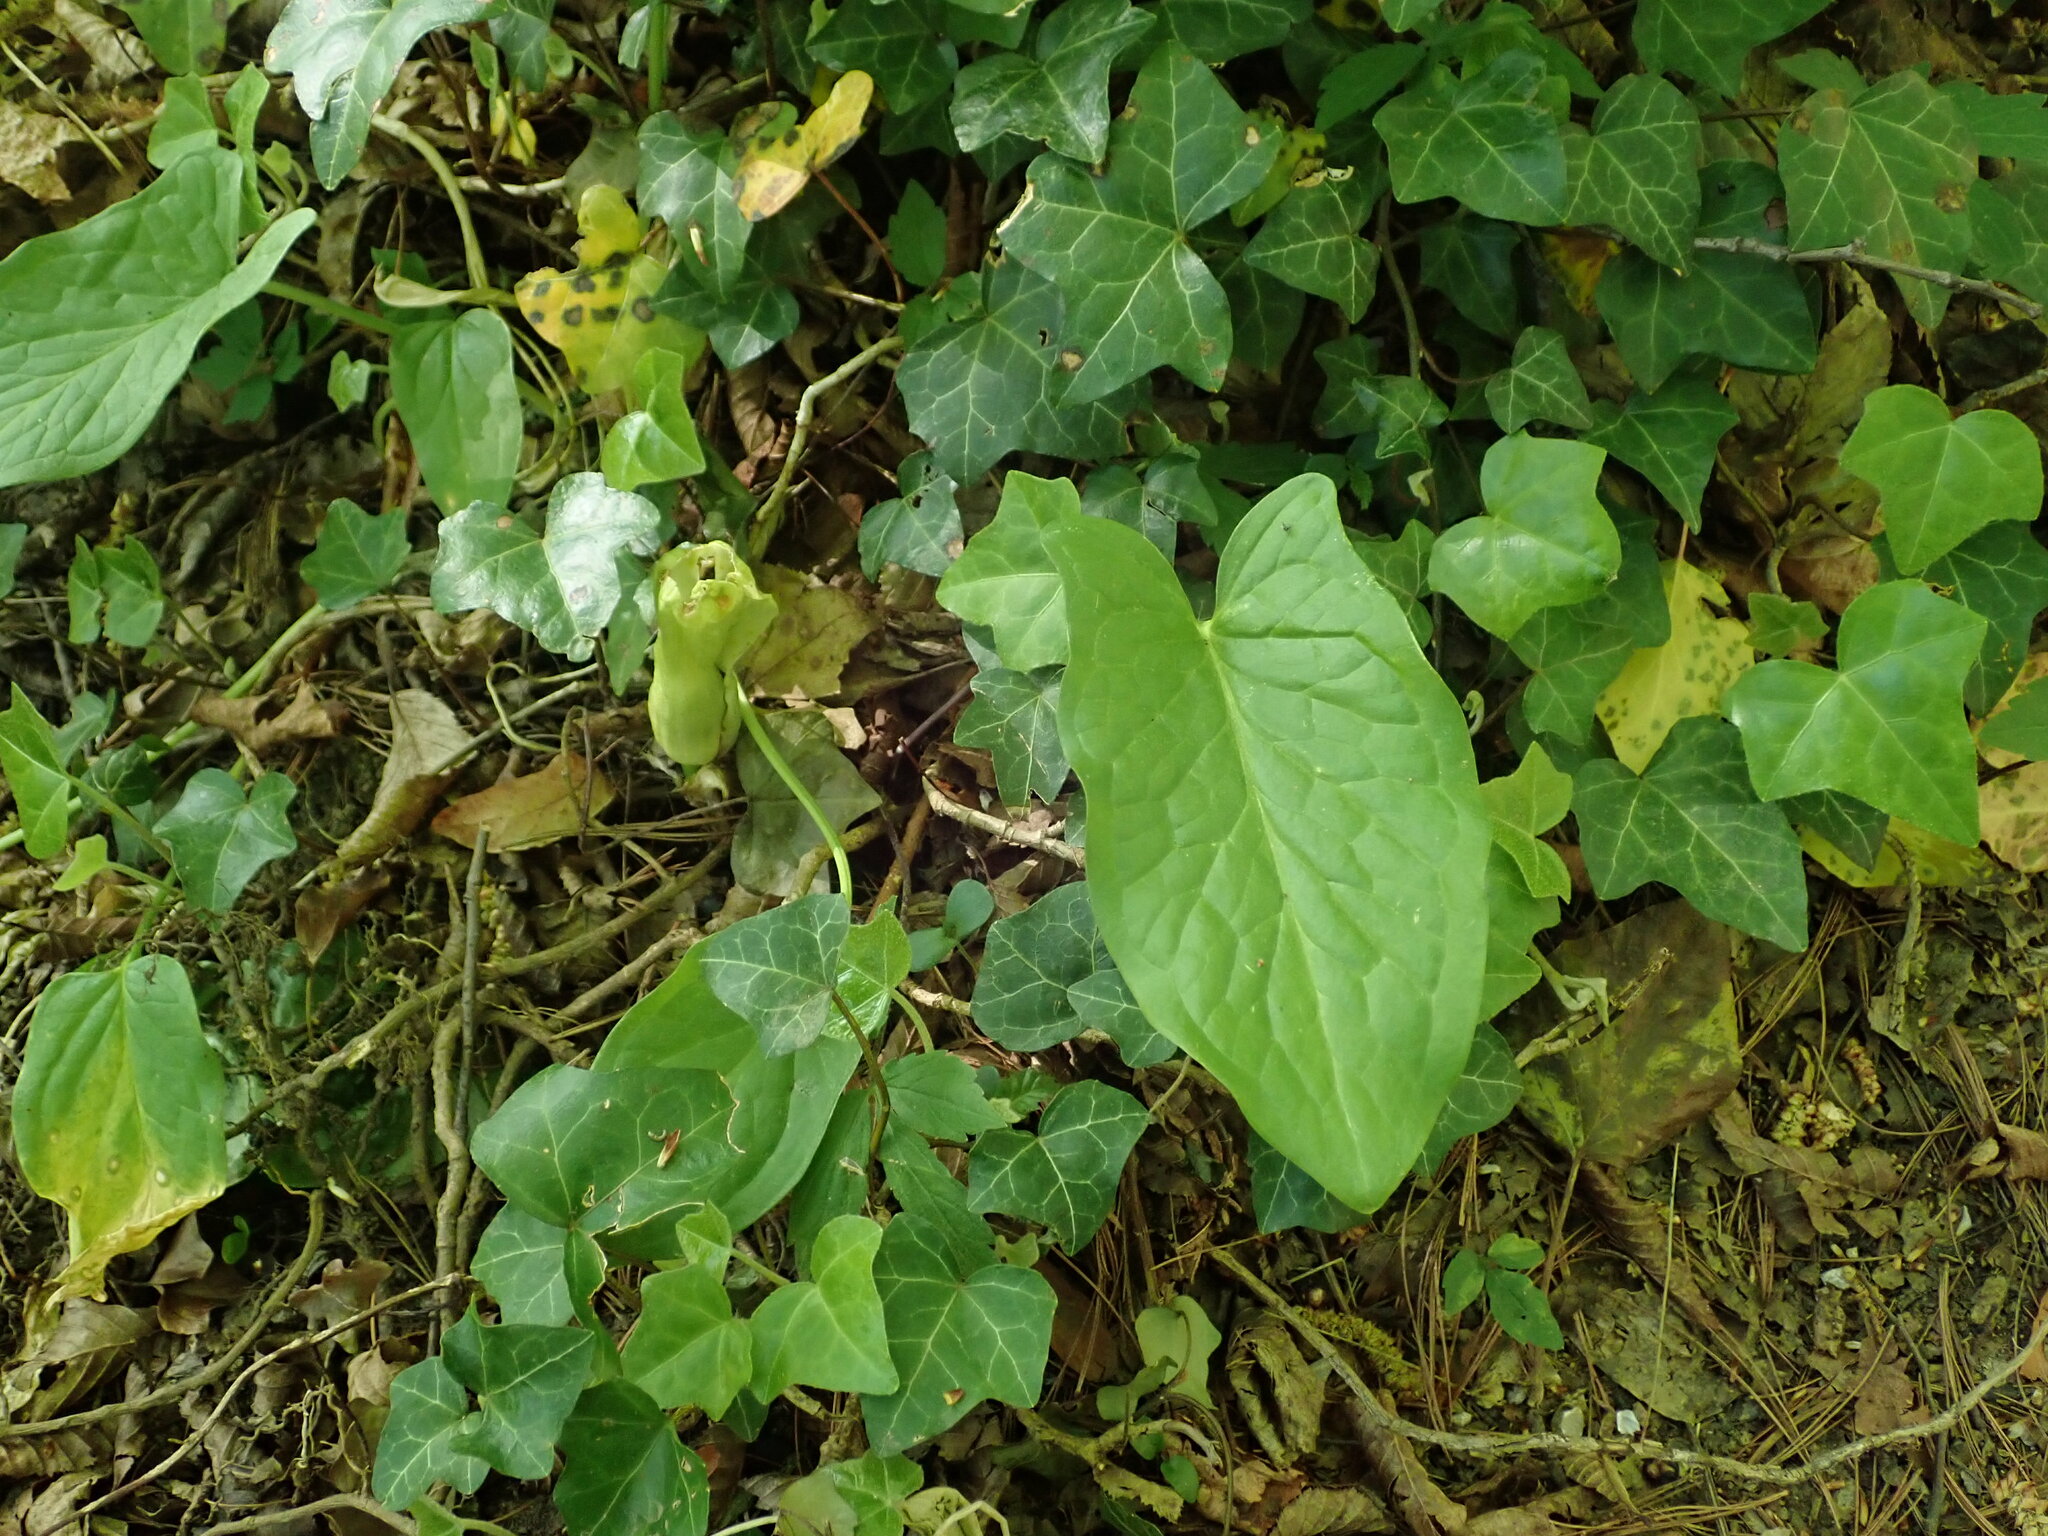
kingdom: Plantae
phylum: Tracheophyta
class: Liliopsida
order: Alismatales
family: Araceae
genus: Arum
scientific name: Arum maculatum
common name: Lords-and-ladies
